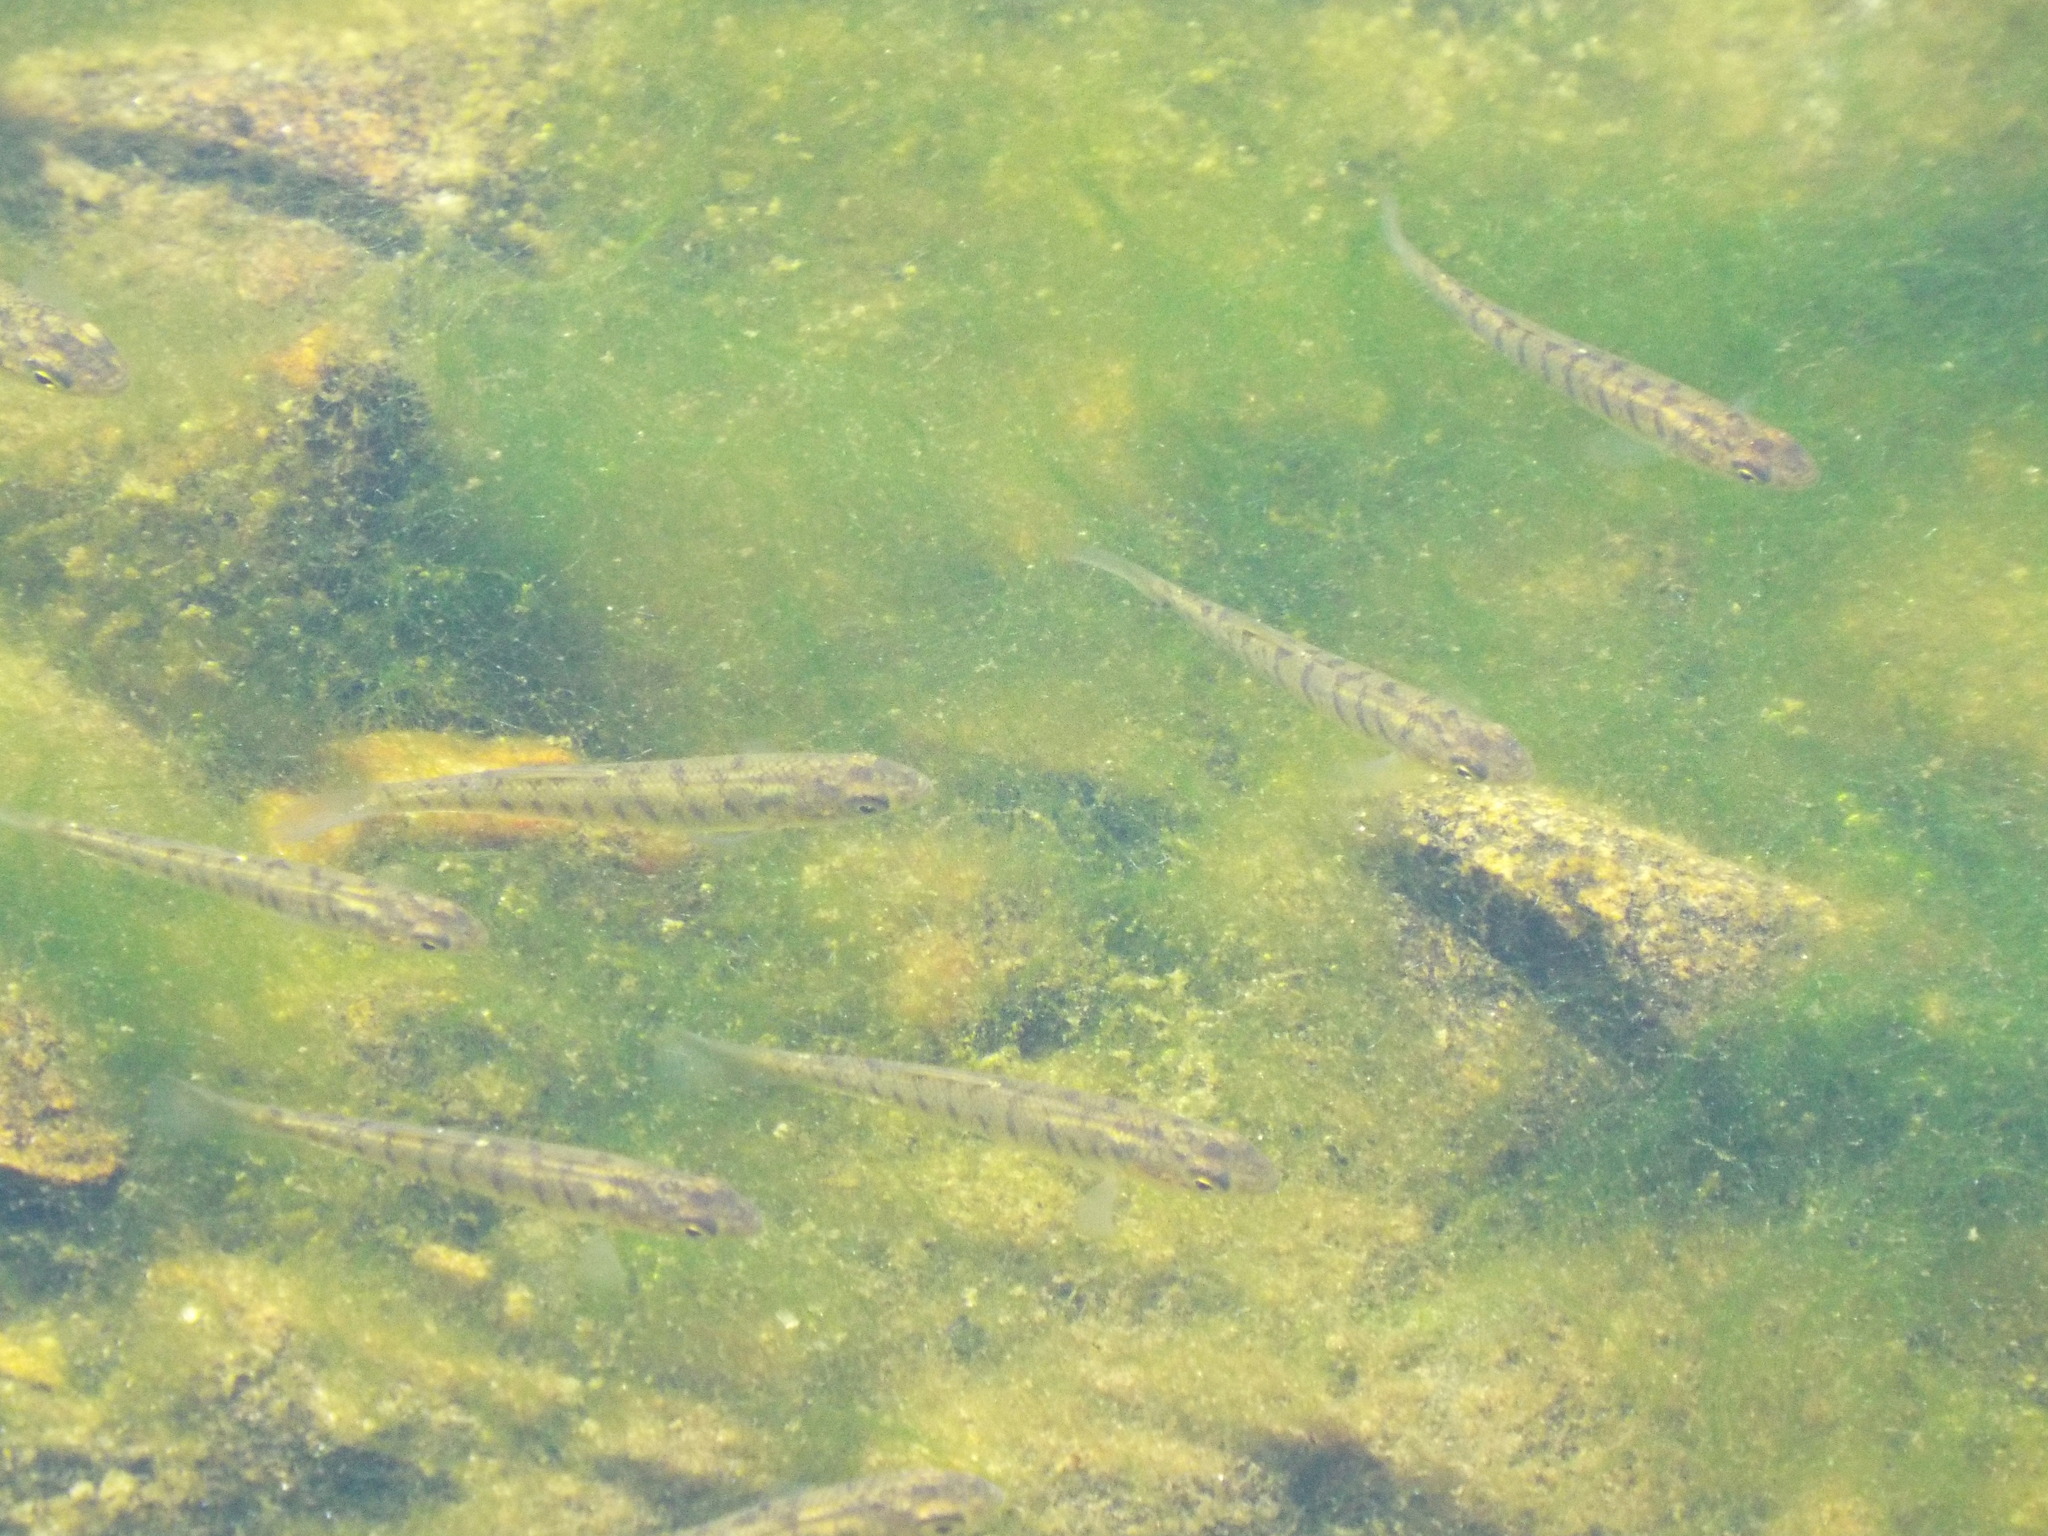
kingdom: Animalia
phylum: Chordata
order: Cyprinodontiformes
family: Fundulidae
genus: Fundulus
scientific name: Fundulus diaphanus
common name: Banded killifish
